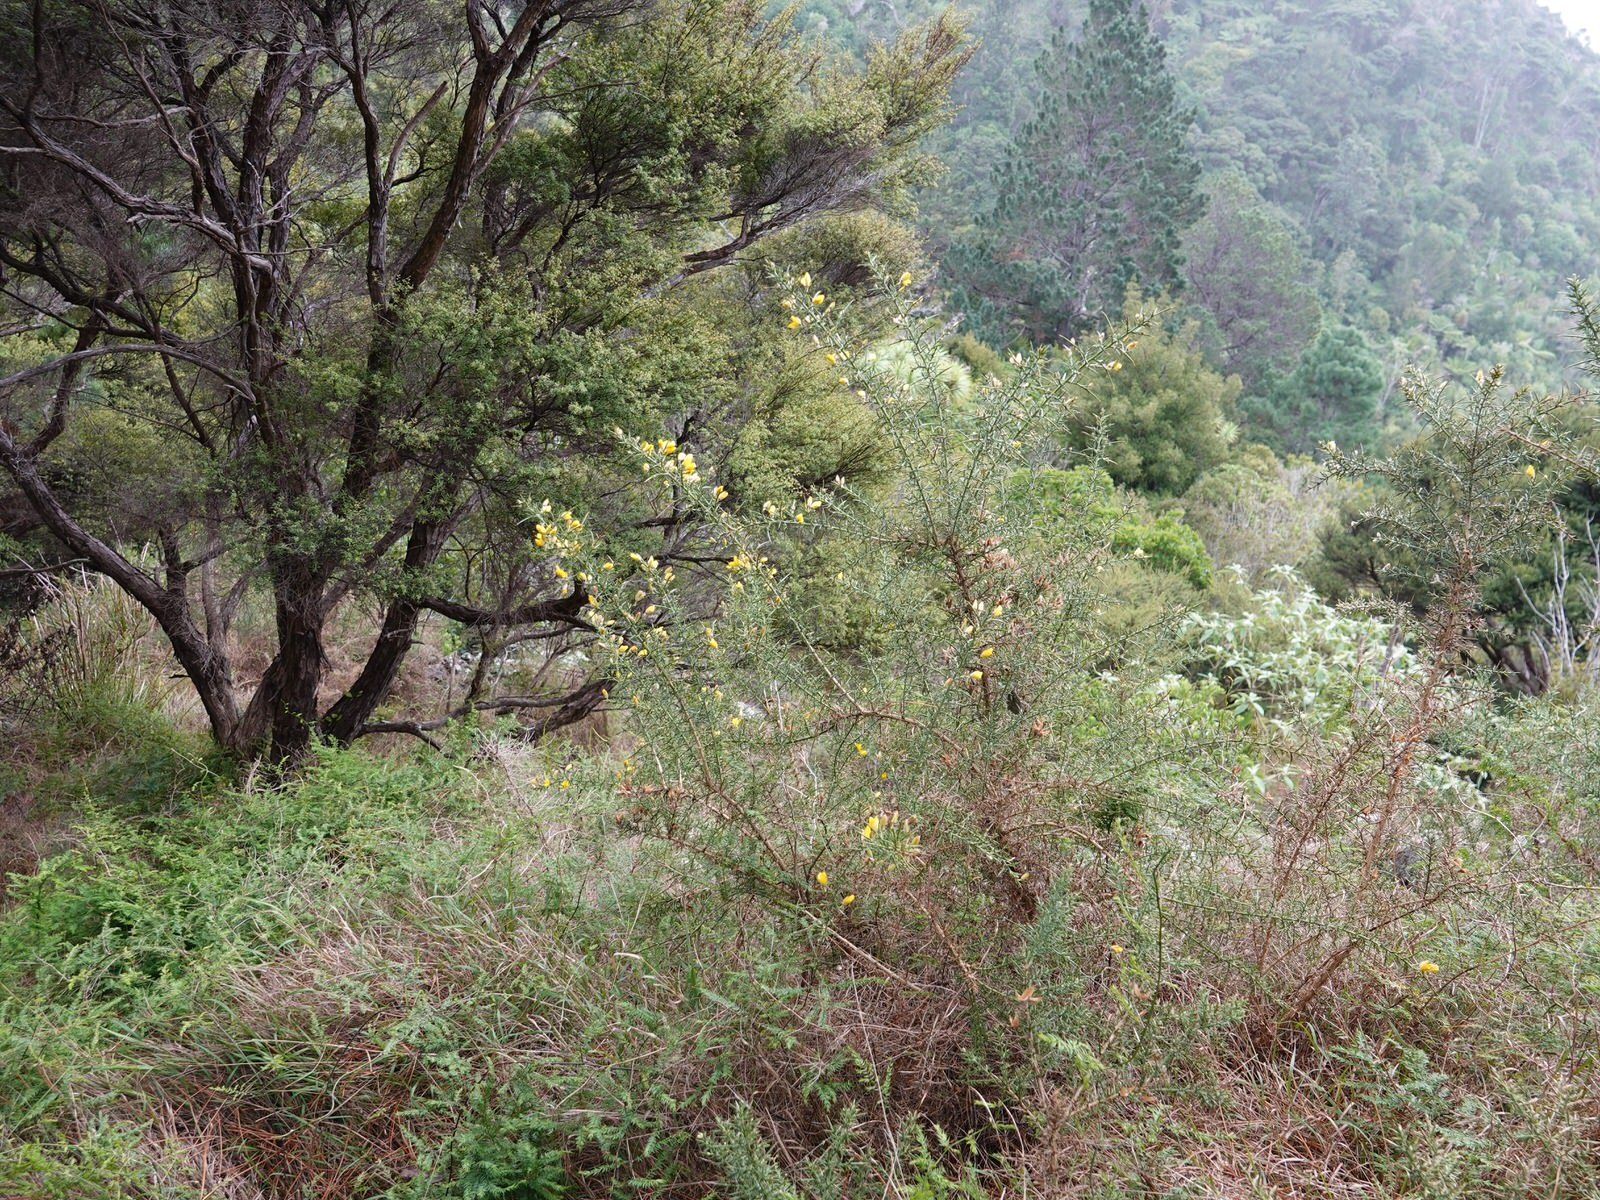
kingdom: Plantae
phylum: Tracheophyta
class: Magnoliopsida
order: Fabales
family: Fabaceae
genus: Ulex
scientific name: Ulex europaeus
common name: Common gorse
